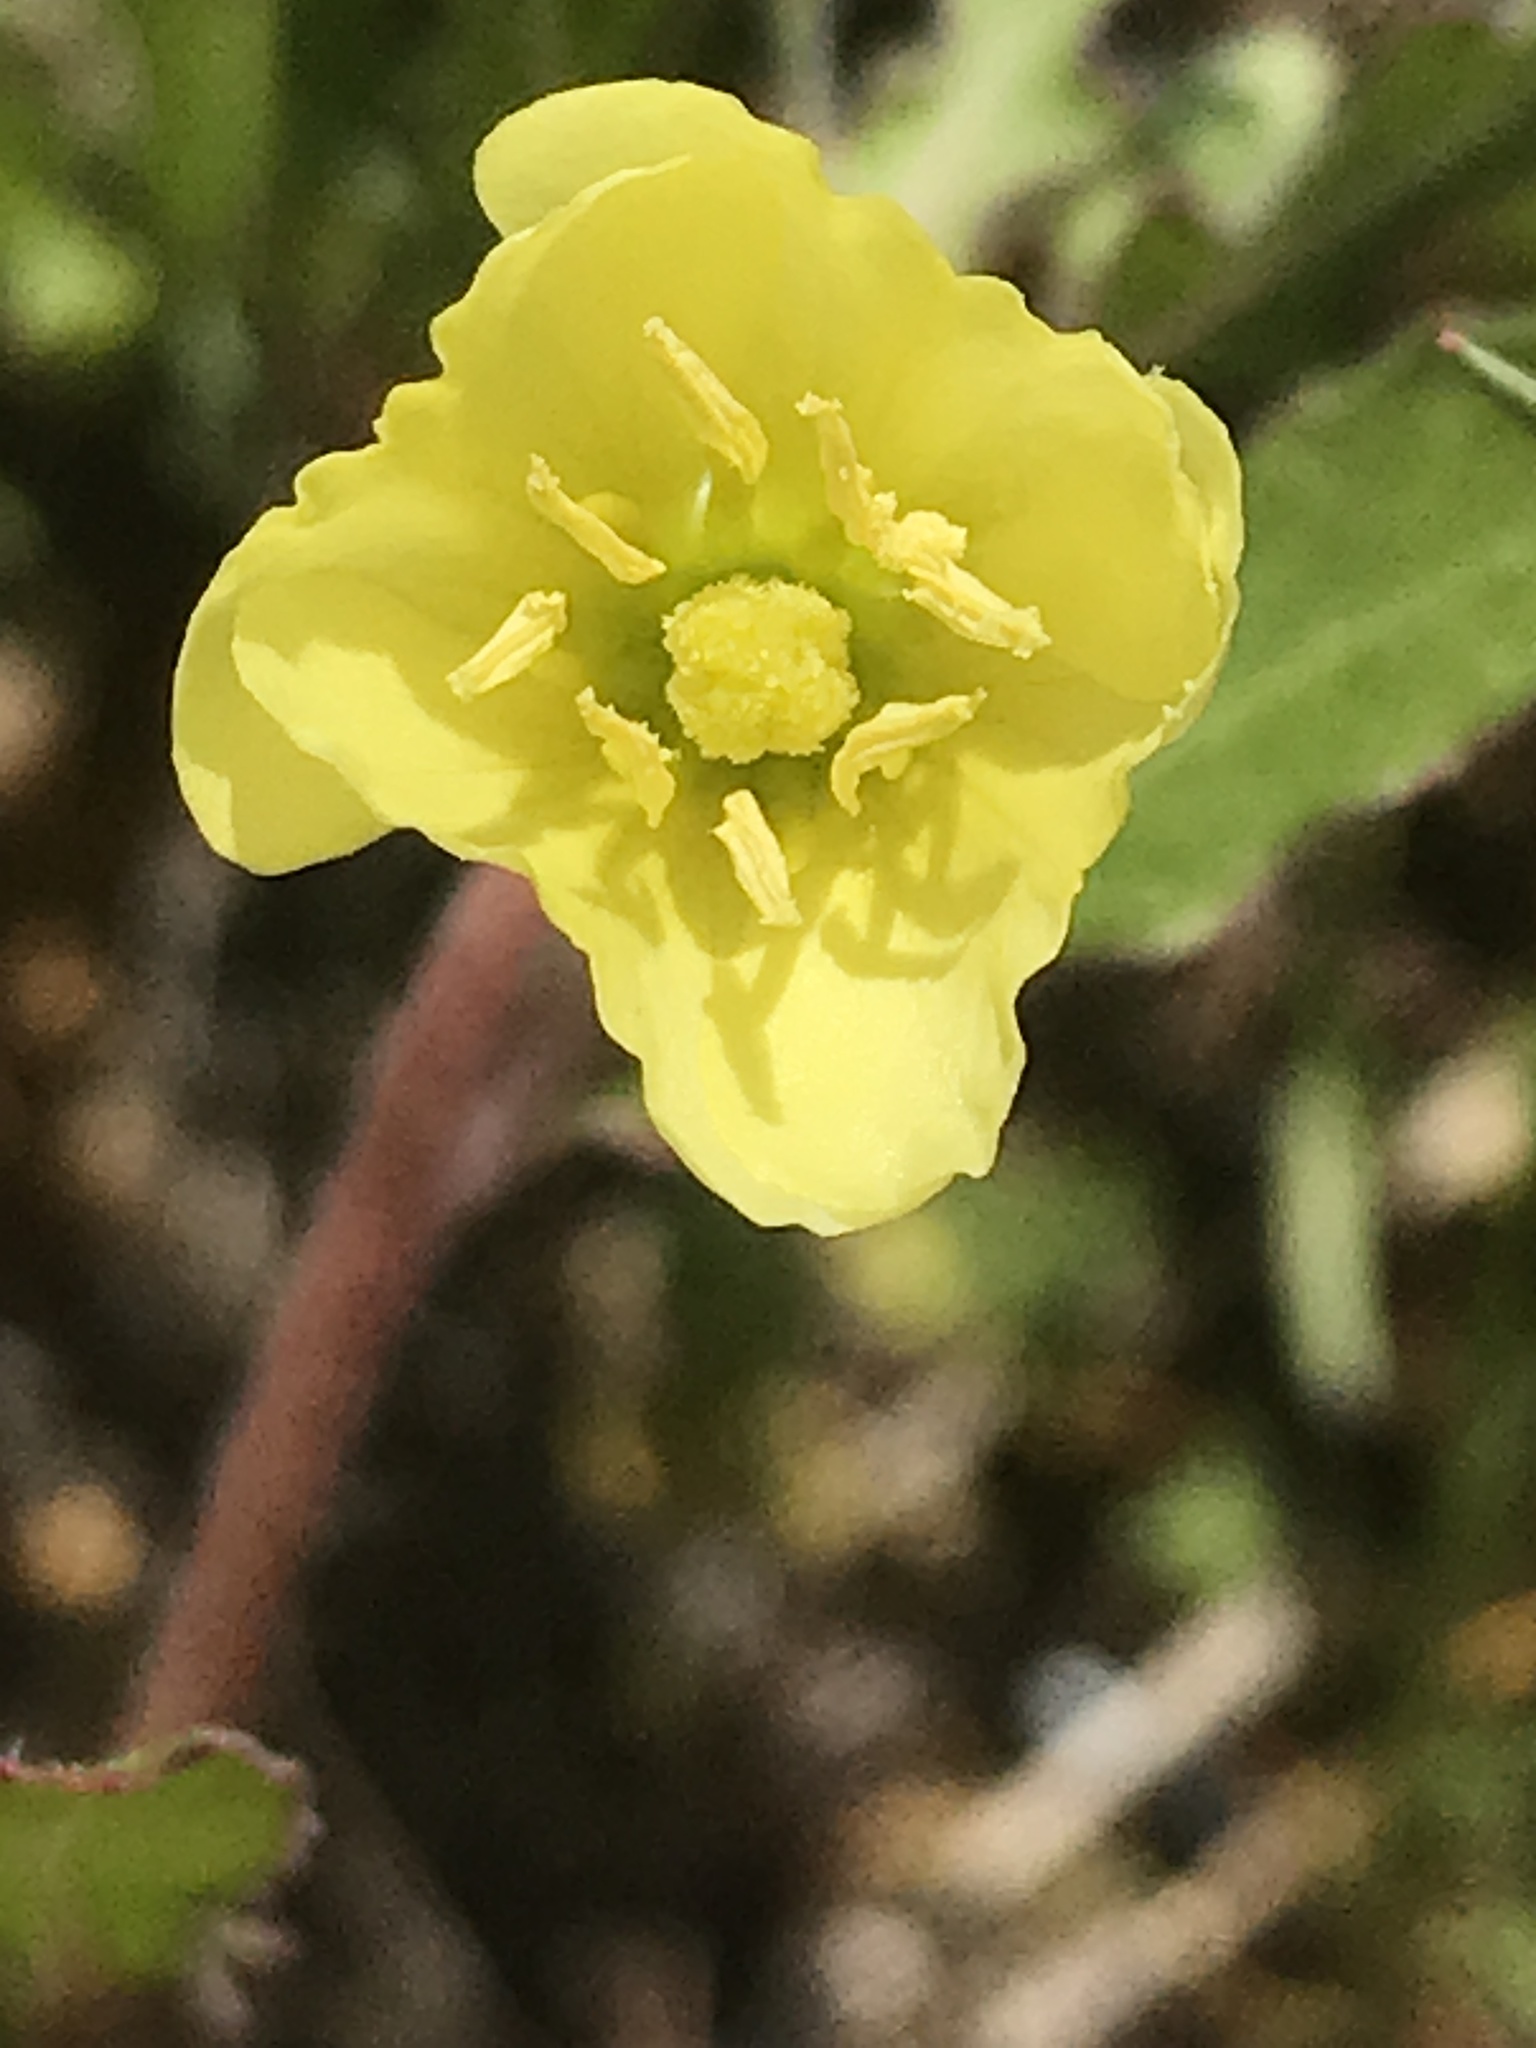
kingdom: Plantae
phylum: Tracheophyta
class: Magnoliopsida
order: Myrtales
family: Onagraceae
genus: Oenothera
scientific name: Oenothera laciniata
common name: Cut-leaved evening-primrose
